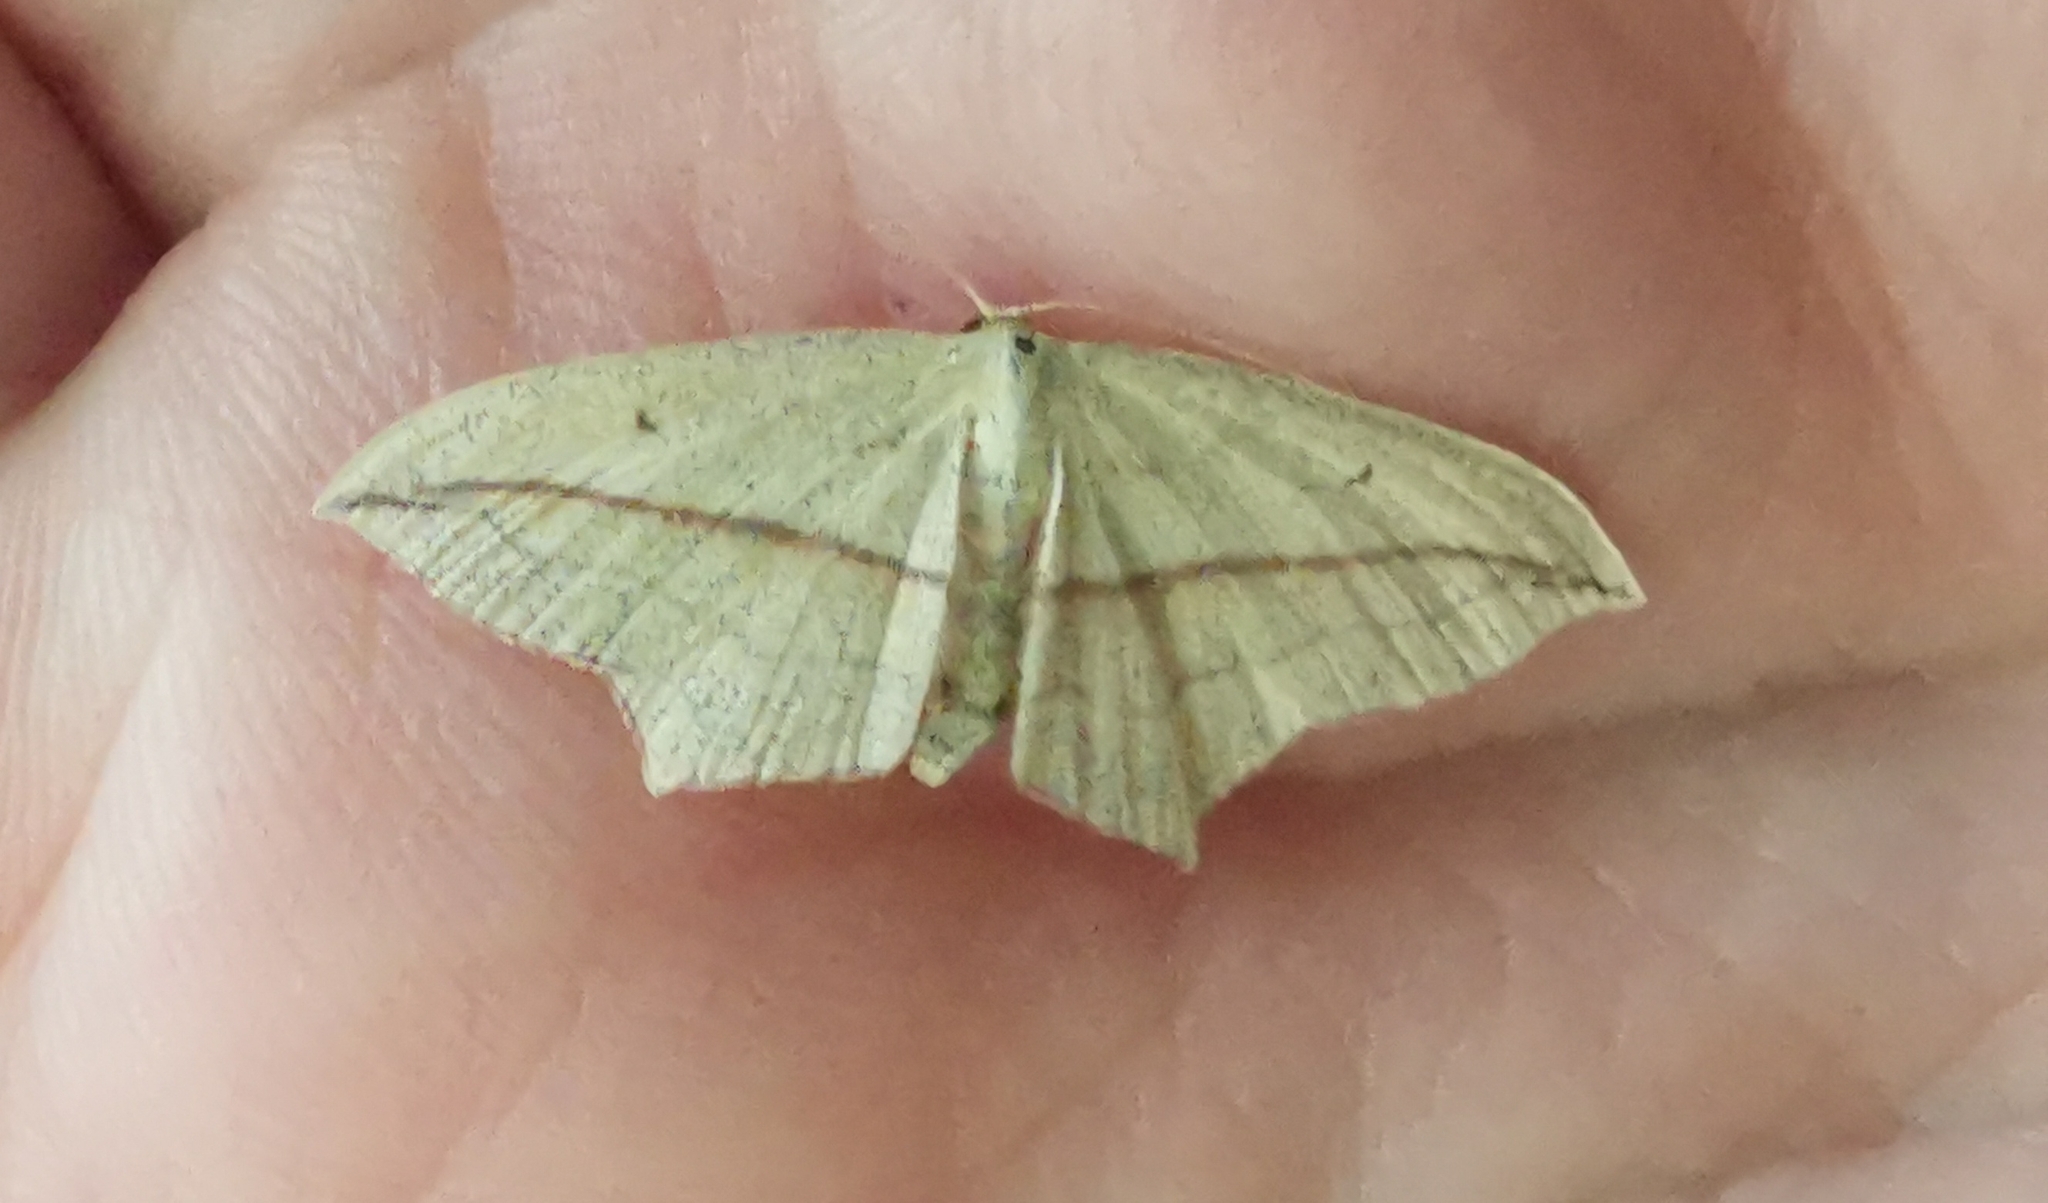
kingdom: Animalia
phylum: Arthropoda
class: Insecta
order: Lepidoptera
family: Geometridae
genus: Timandra
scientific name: Timandra comae
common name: Blood-vein
